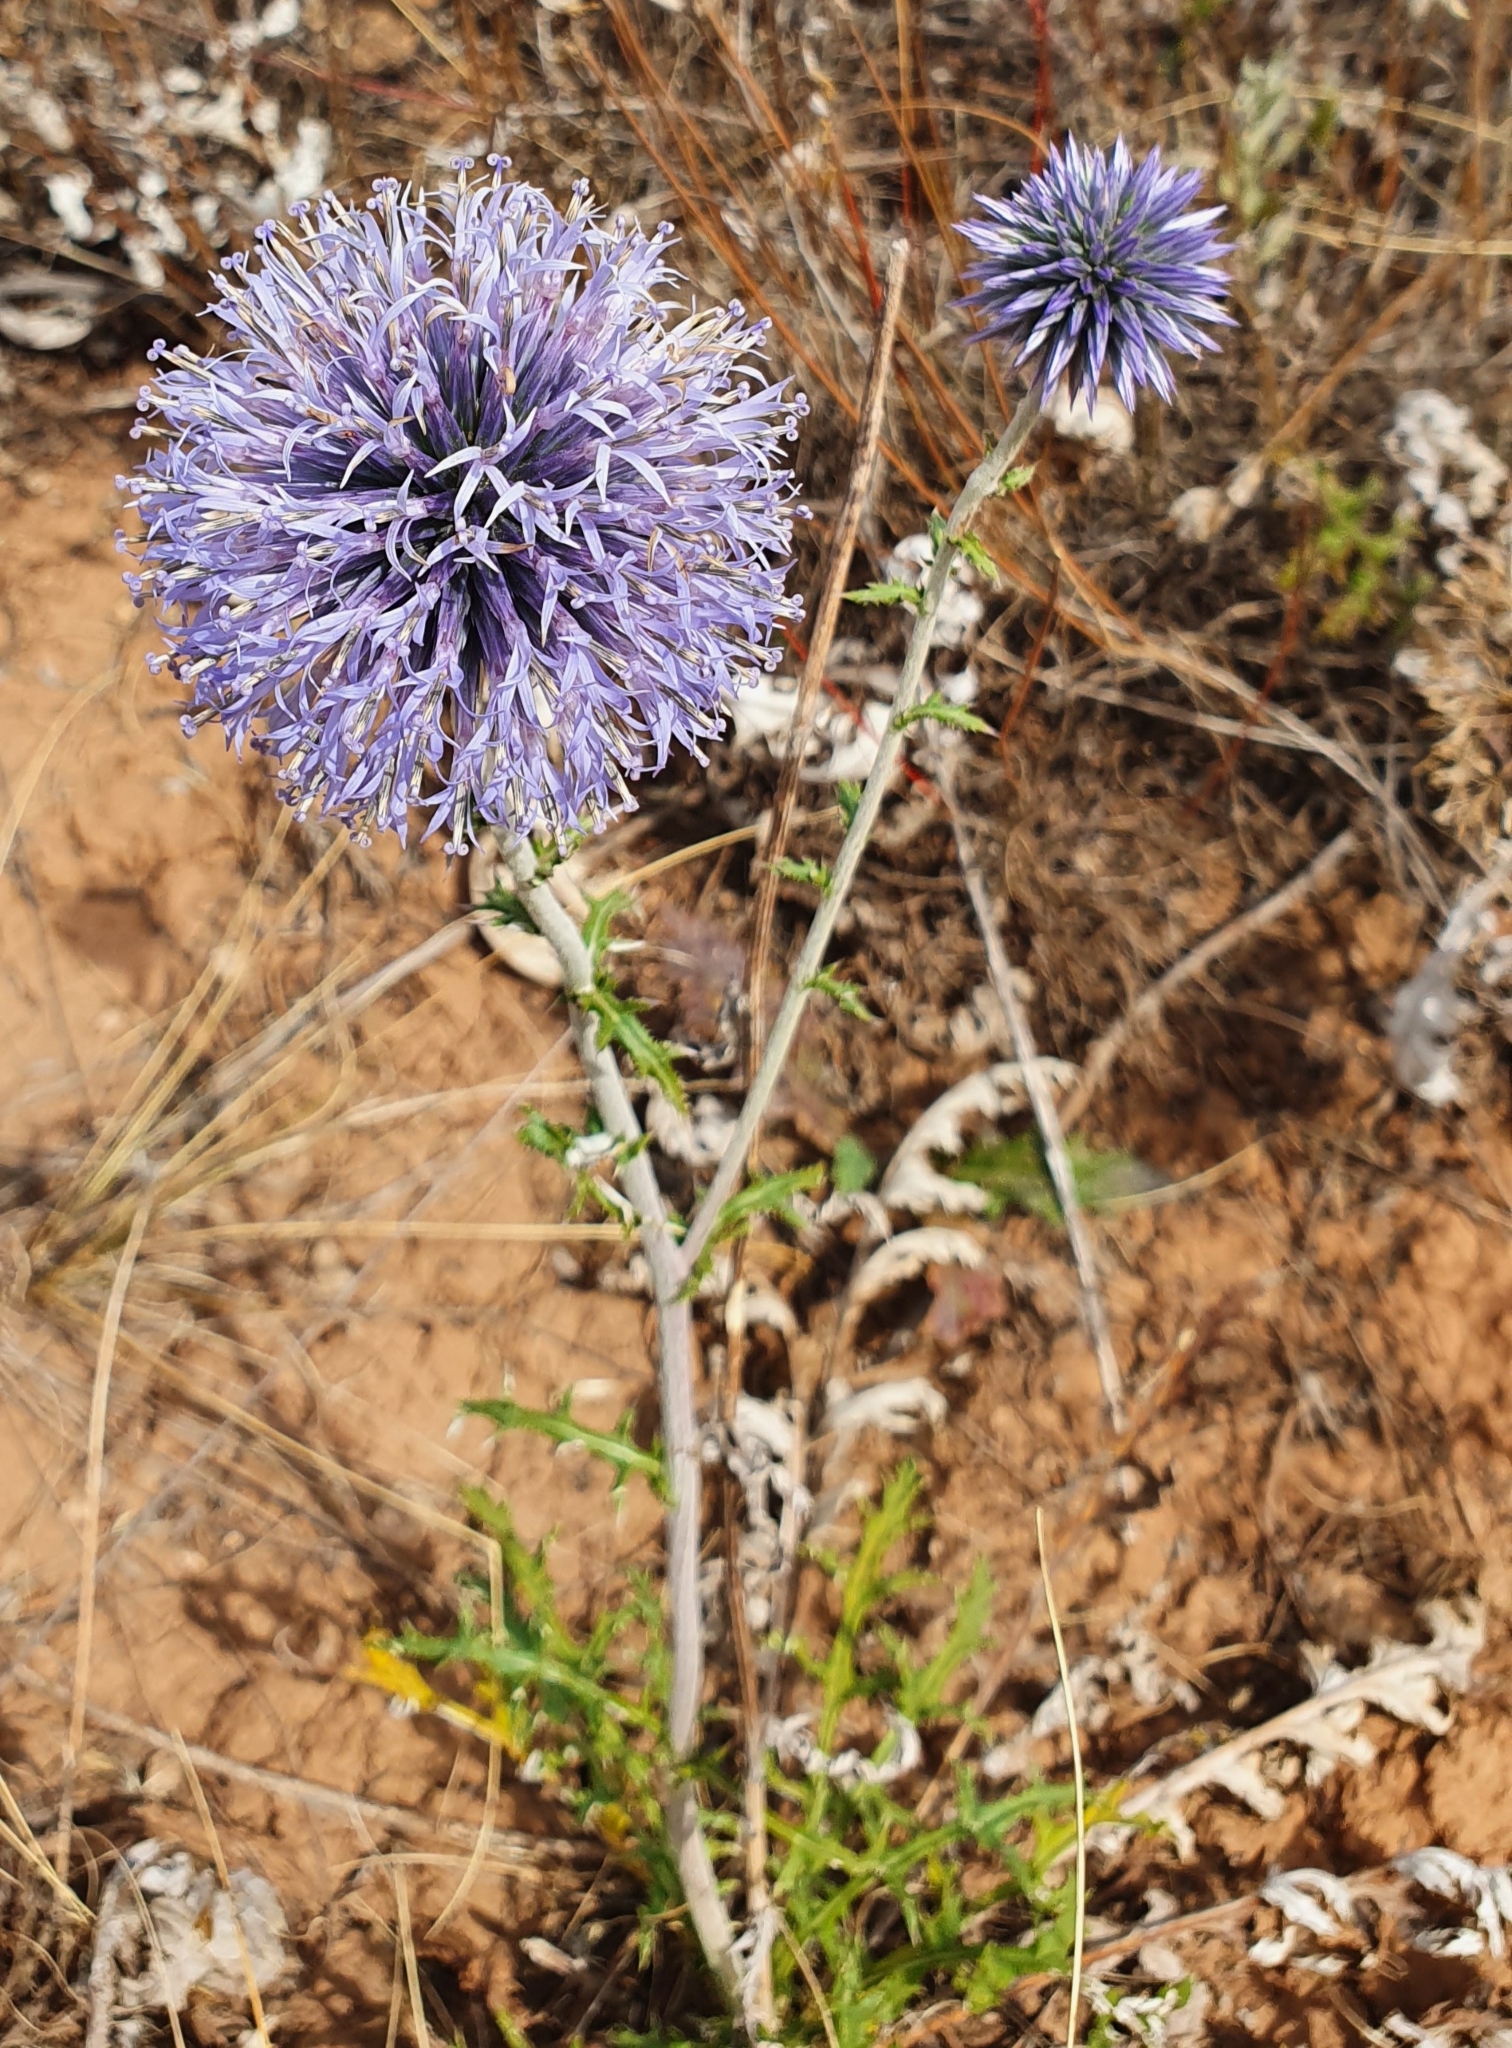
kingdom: Plantae
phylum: Tracheophyta
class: Magnoliopsida
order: Asterales
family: Asteraceae
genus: Echinops
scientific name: Echinops ritro
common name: Globe thistle
